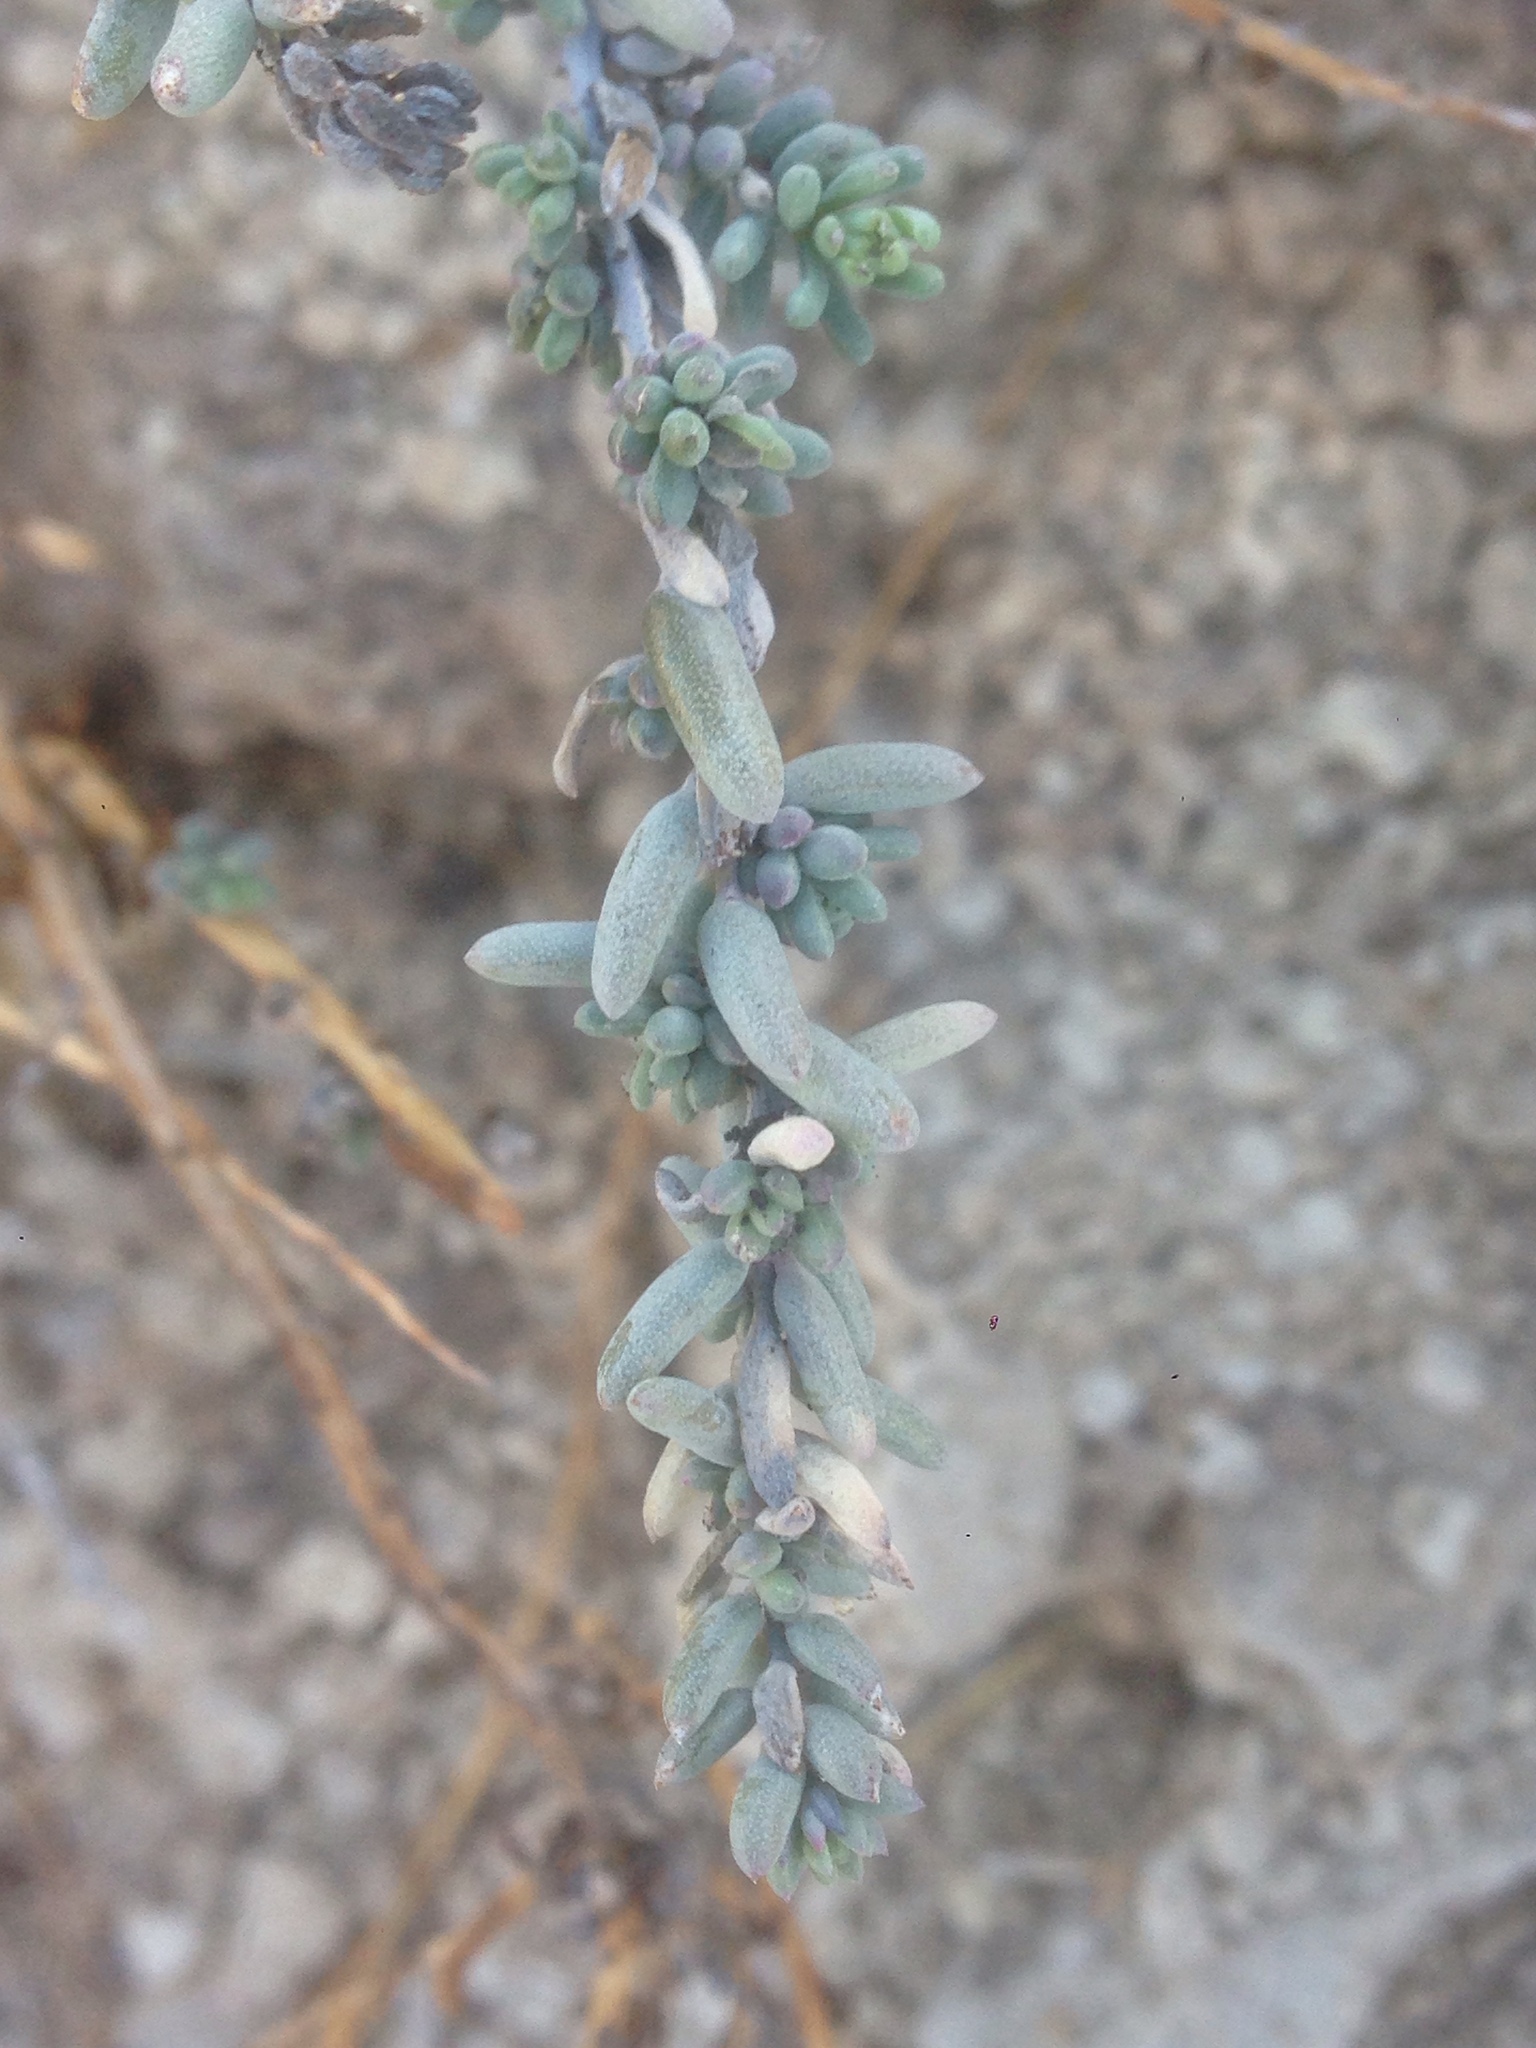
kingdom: Plantae
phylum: Tracheophyta
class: Magnoliopsida
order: Caryophyllales
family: Amaranthaceae
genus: Suaeda
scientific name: Suaeda nigra
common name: Bush seepweed
